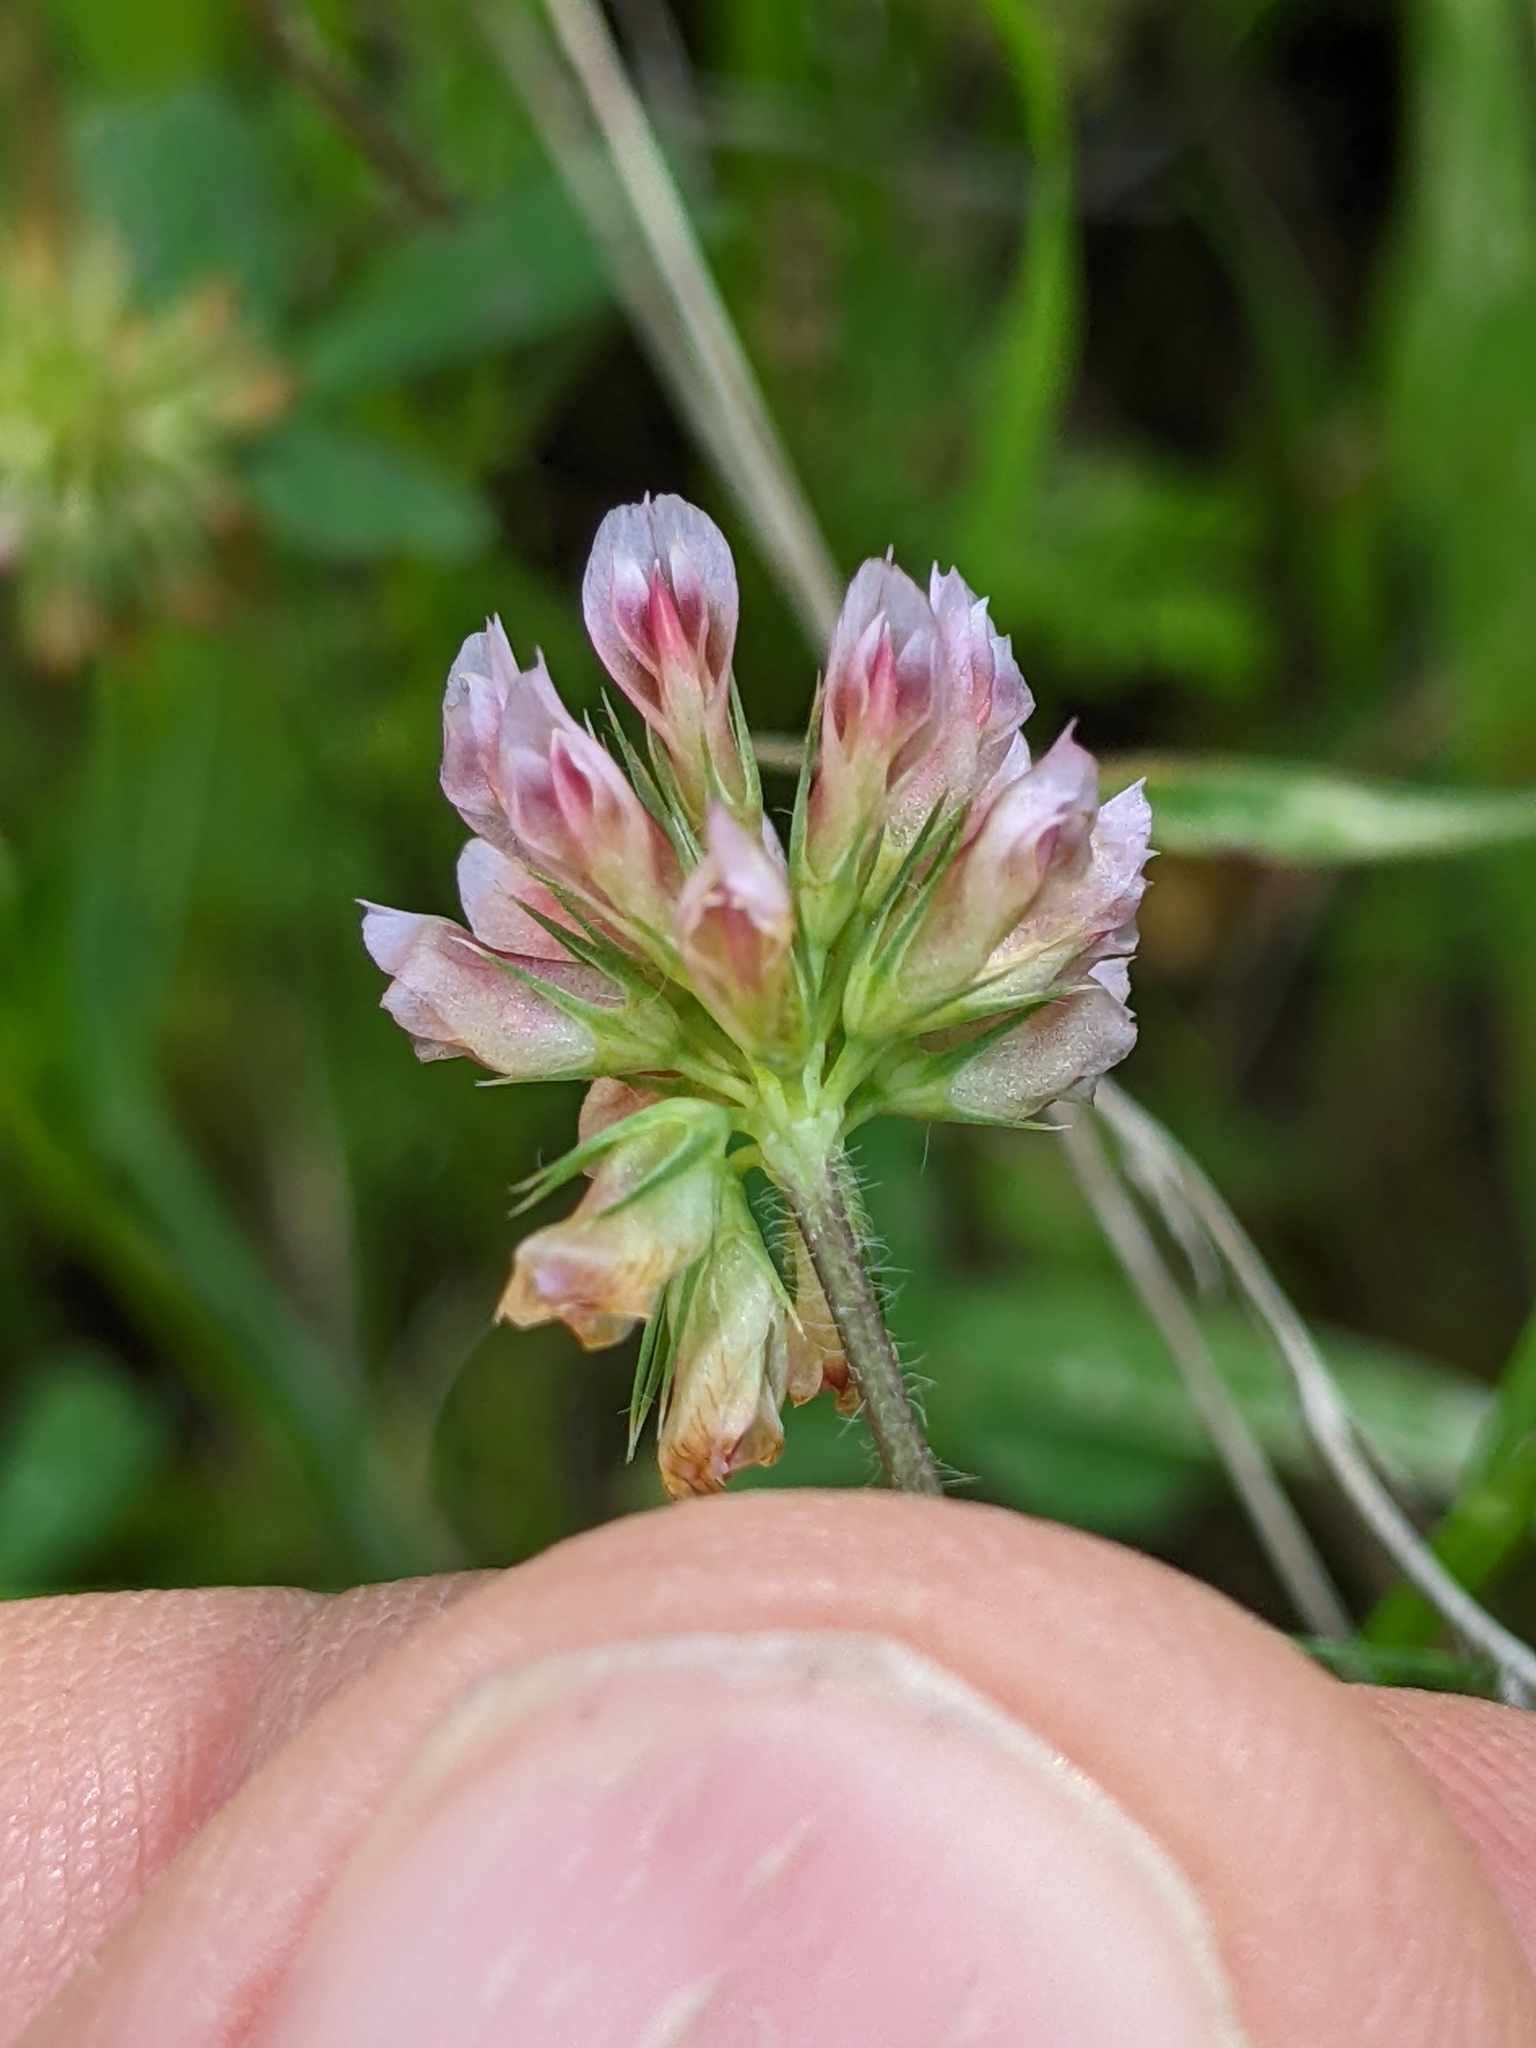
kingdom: Plantae
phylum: Tracheophyta
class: Magnoliopsida
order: Fabales
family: Fabaceae
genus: Trifolium
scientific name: Trifolium bifidum
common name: Notch-leaf clover
